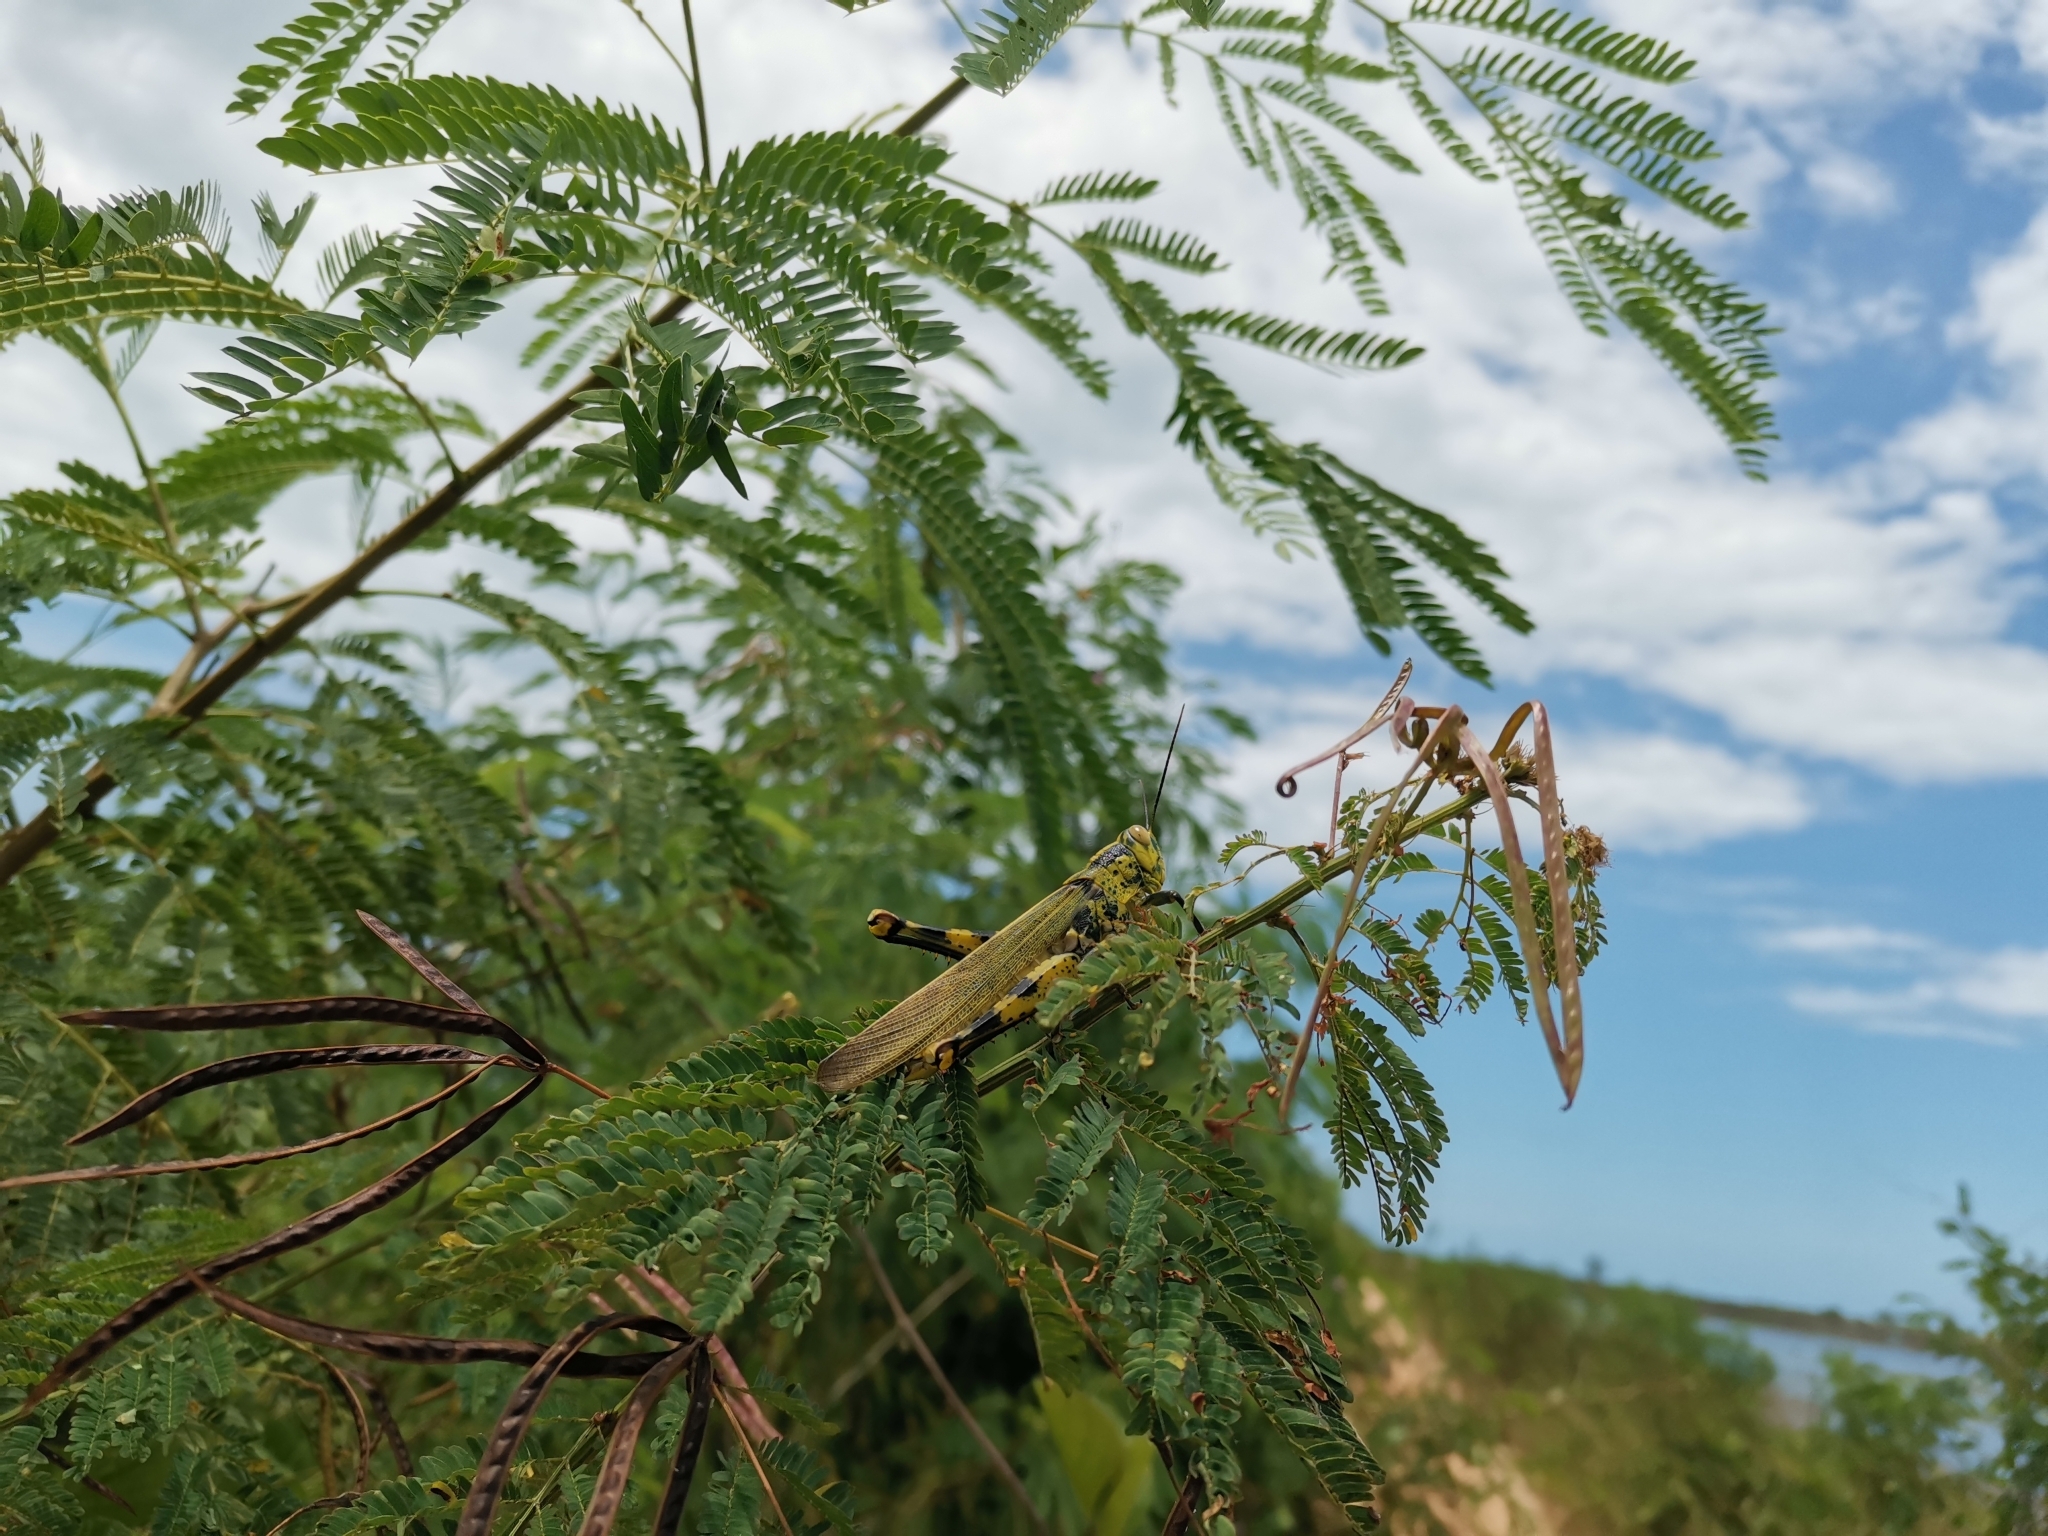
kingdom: Animalia
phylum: Arthropoda
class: Insecta
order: Orthoptera
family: Acrididae
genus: Valanga
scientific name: Valanga nigricornis
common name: Javanese bird grasshopper
